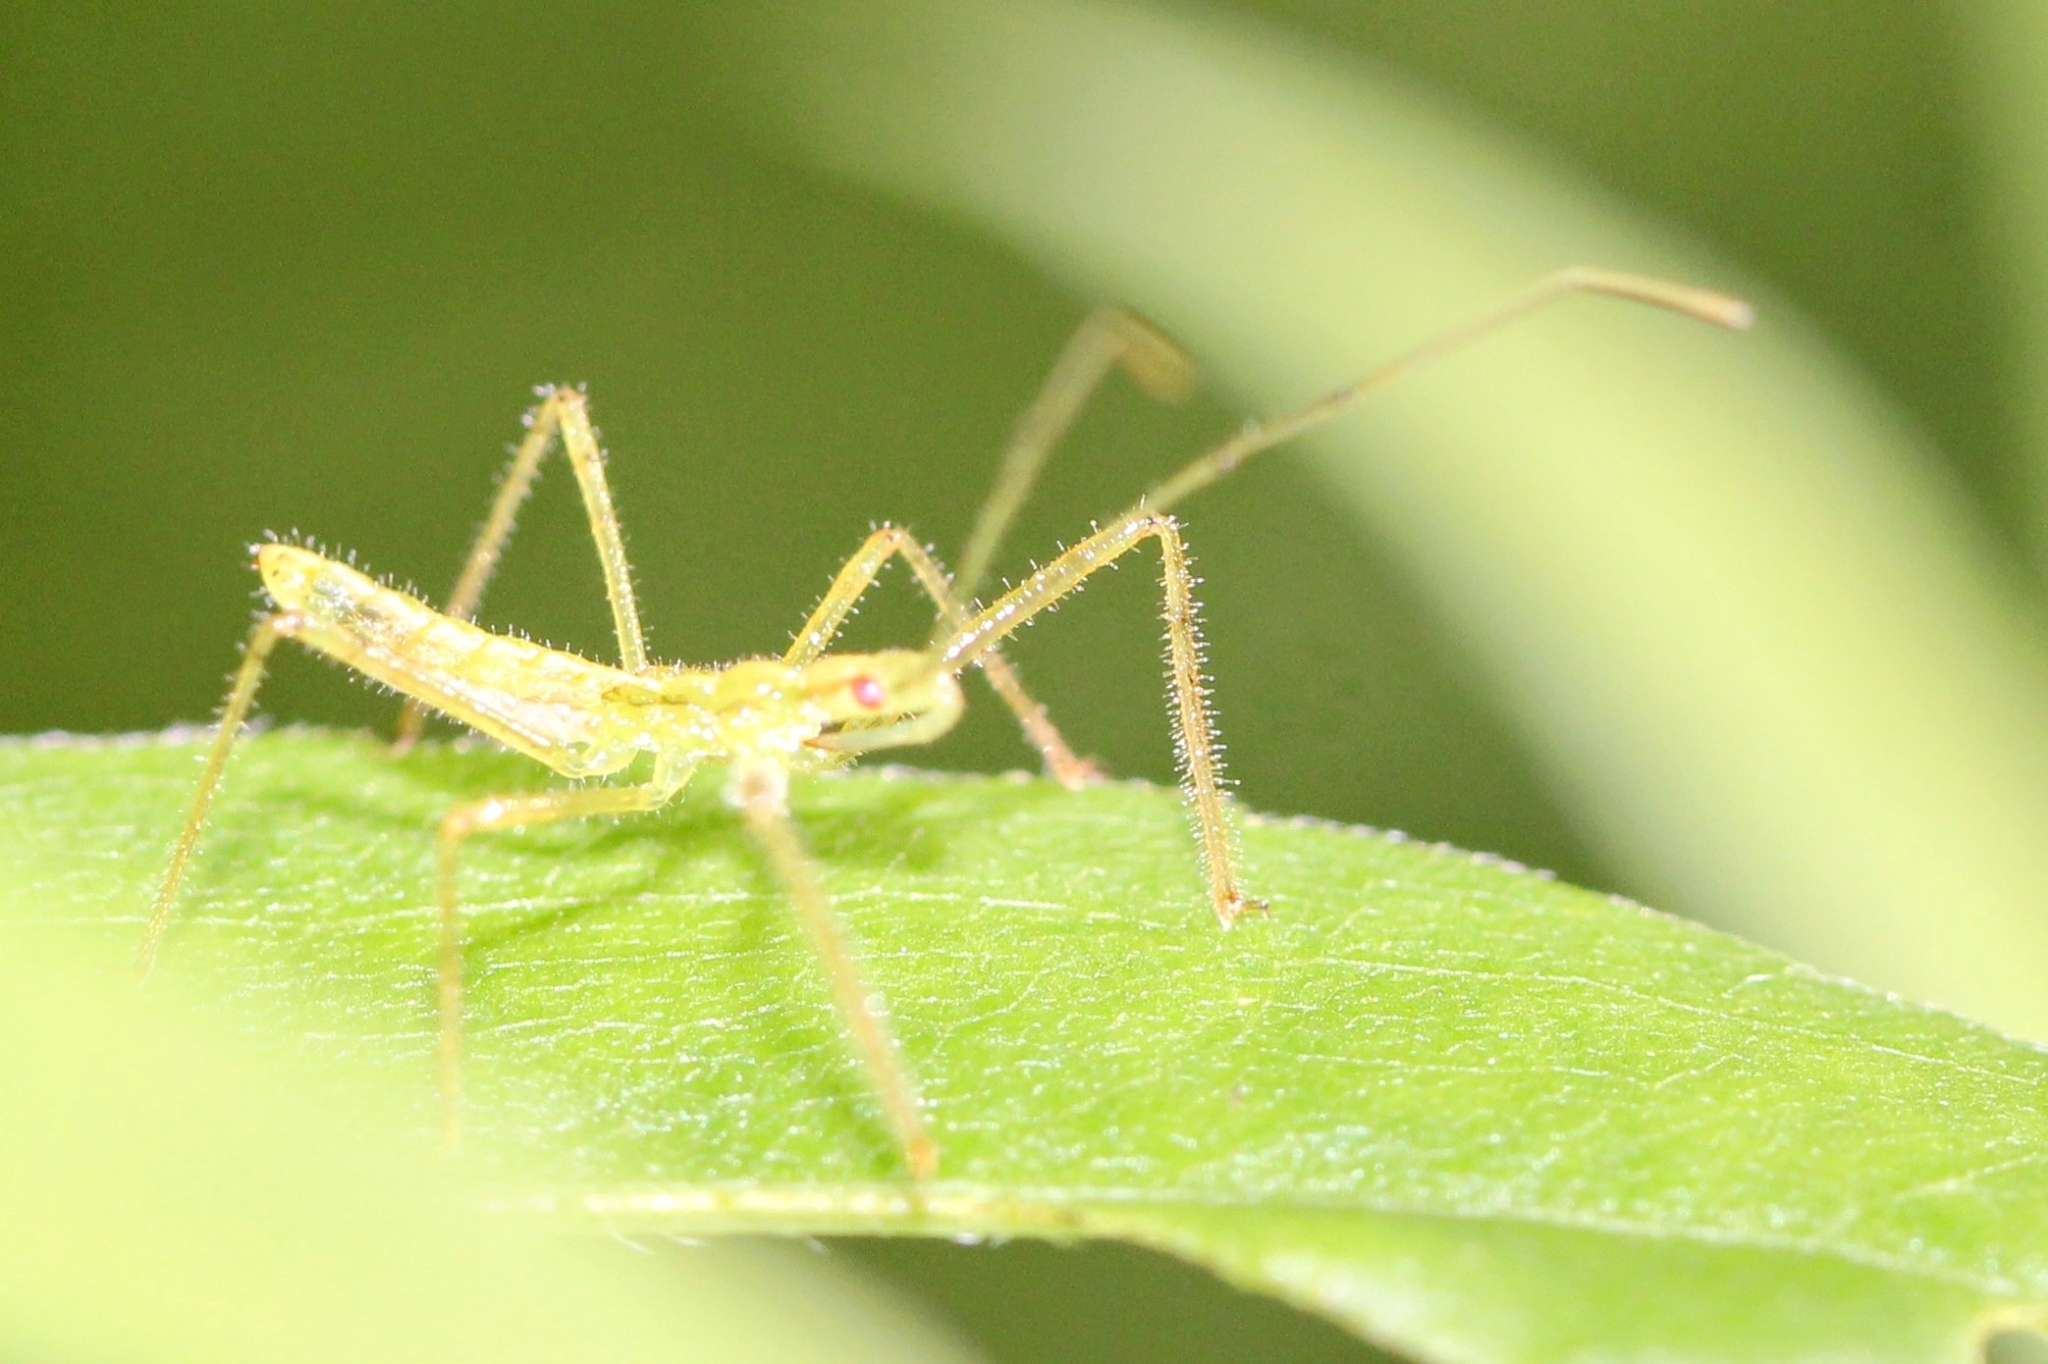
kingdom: Animalia
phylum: Arthropoda
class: Insecta
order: Hemiptera
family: Reduviidae
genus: Zelus
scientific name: Zelus luridus
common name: Pale green assassin bug
